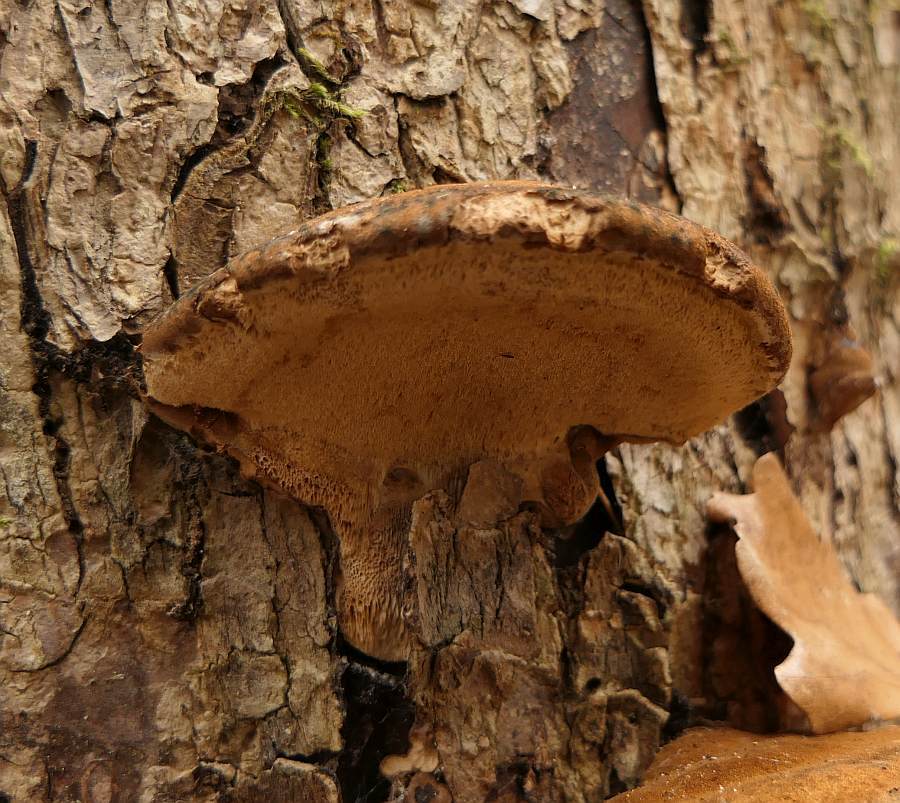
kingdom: Fungi
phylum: Basidiomycota
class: Agaricomycetes
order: Polyporales
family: Ischnodermataceae
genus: Ischnoderma
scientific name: Ischnoderma resinosum
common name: Resinous polypore
